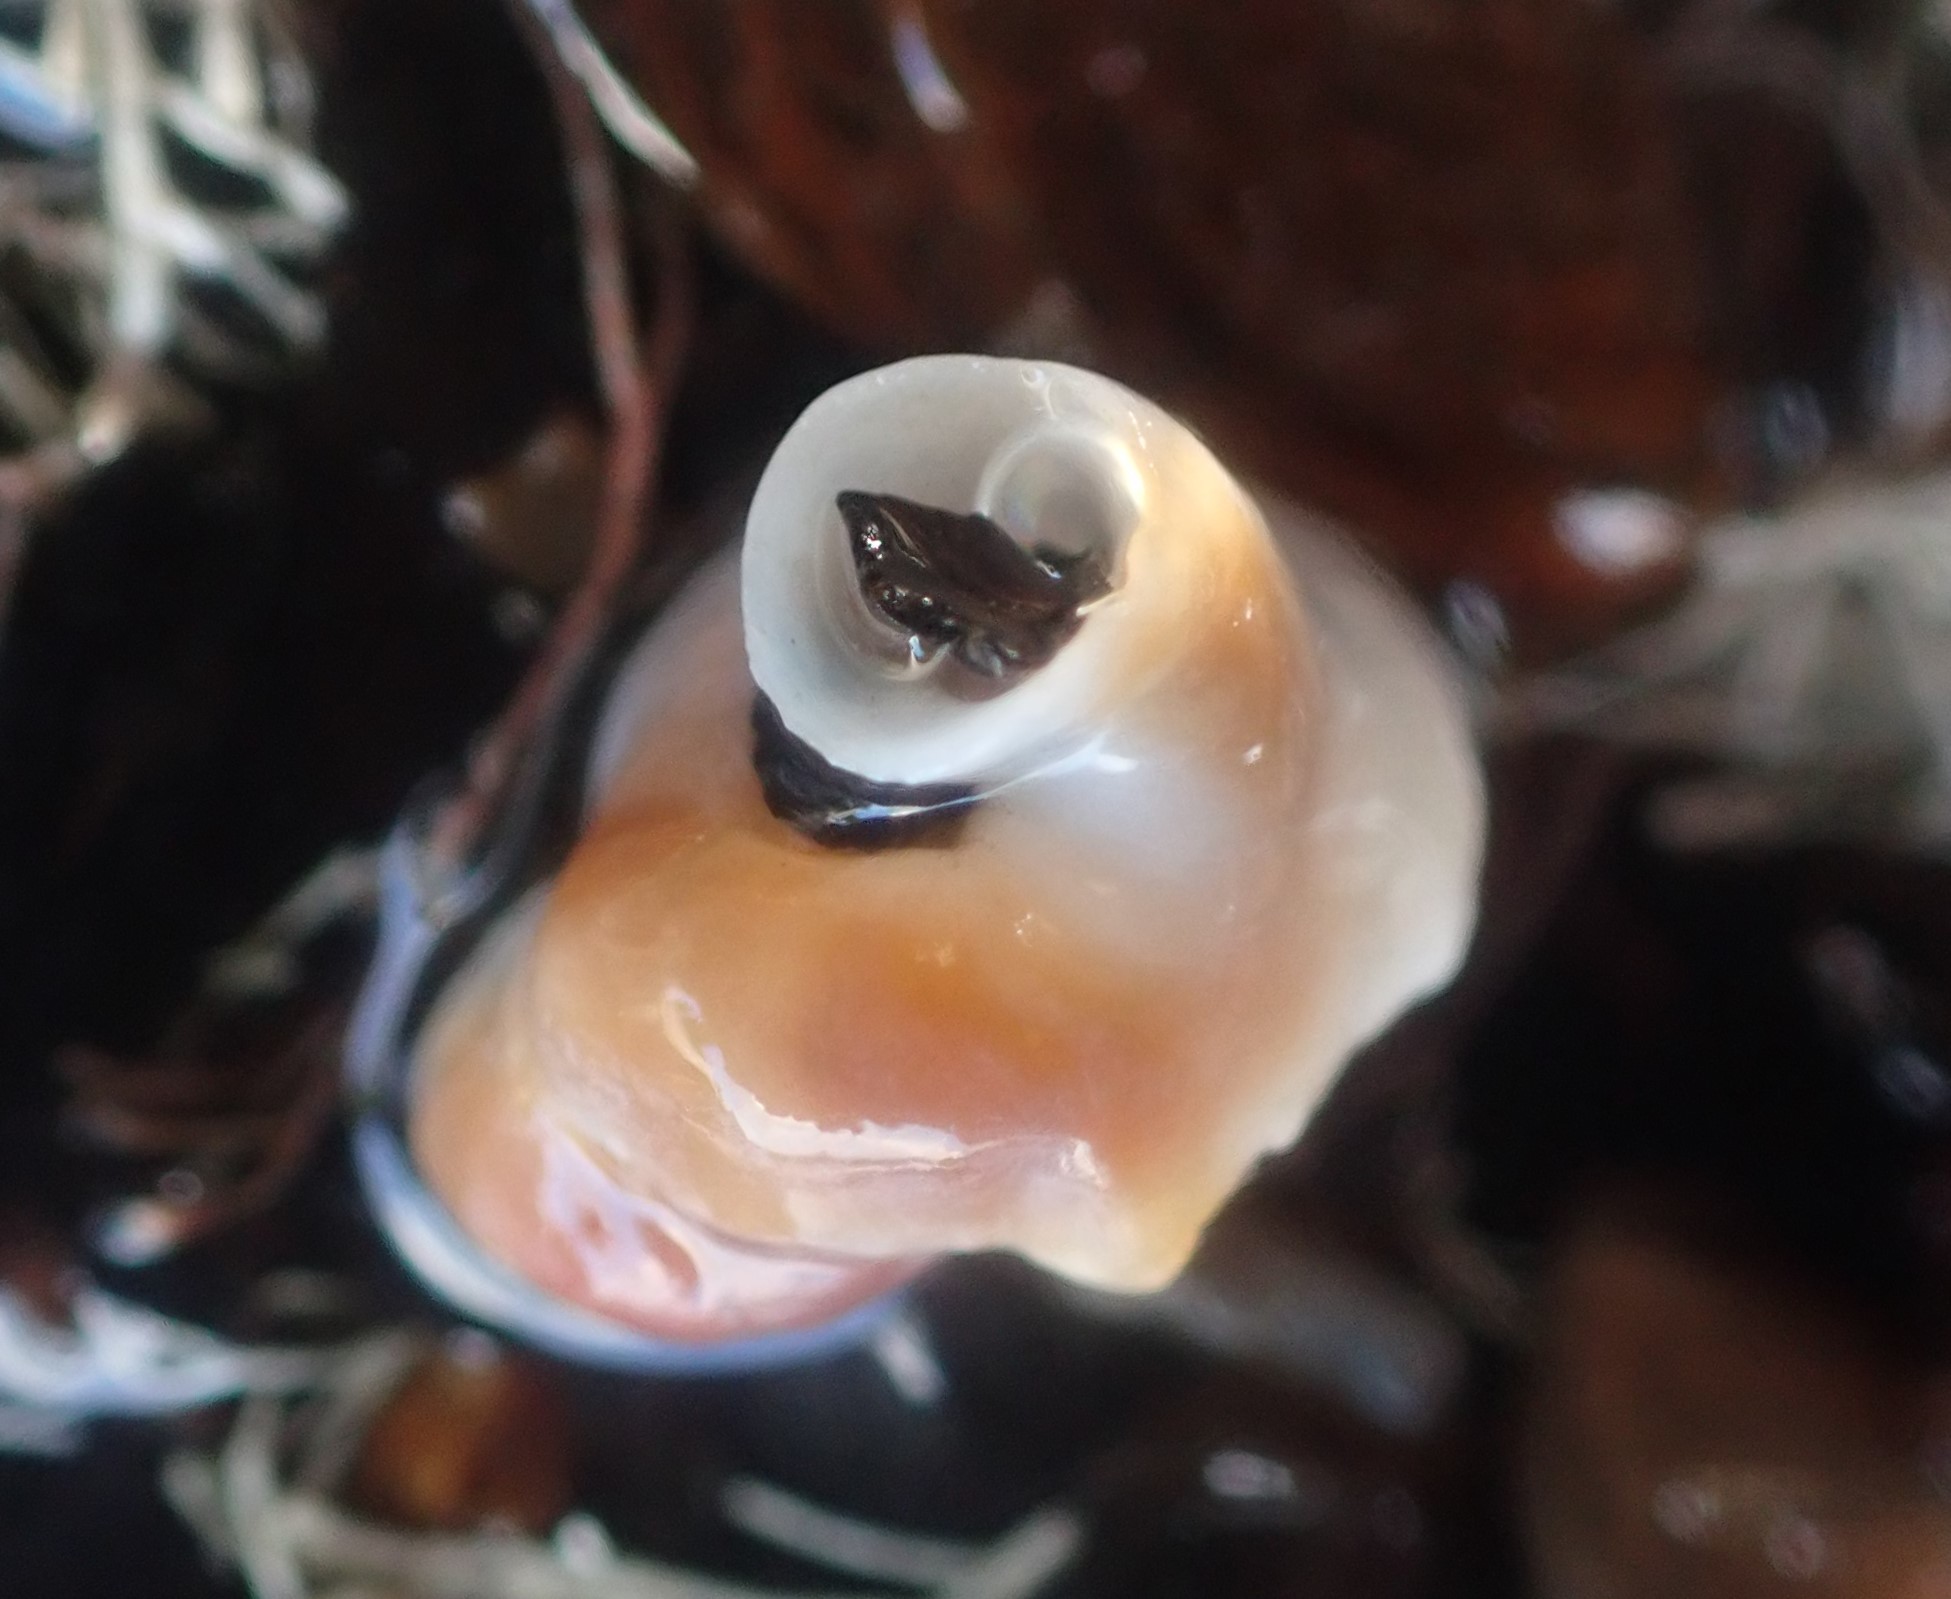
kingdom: Animalia
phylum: Mollusca
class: Gastropoda
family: Siliquariidae
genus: Stephopoma
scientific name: Stephopoma roseum
